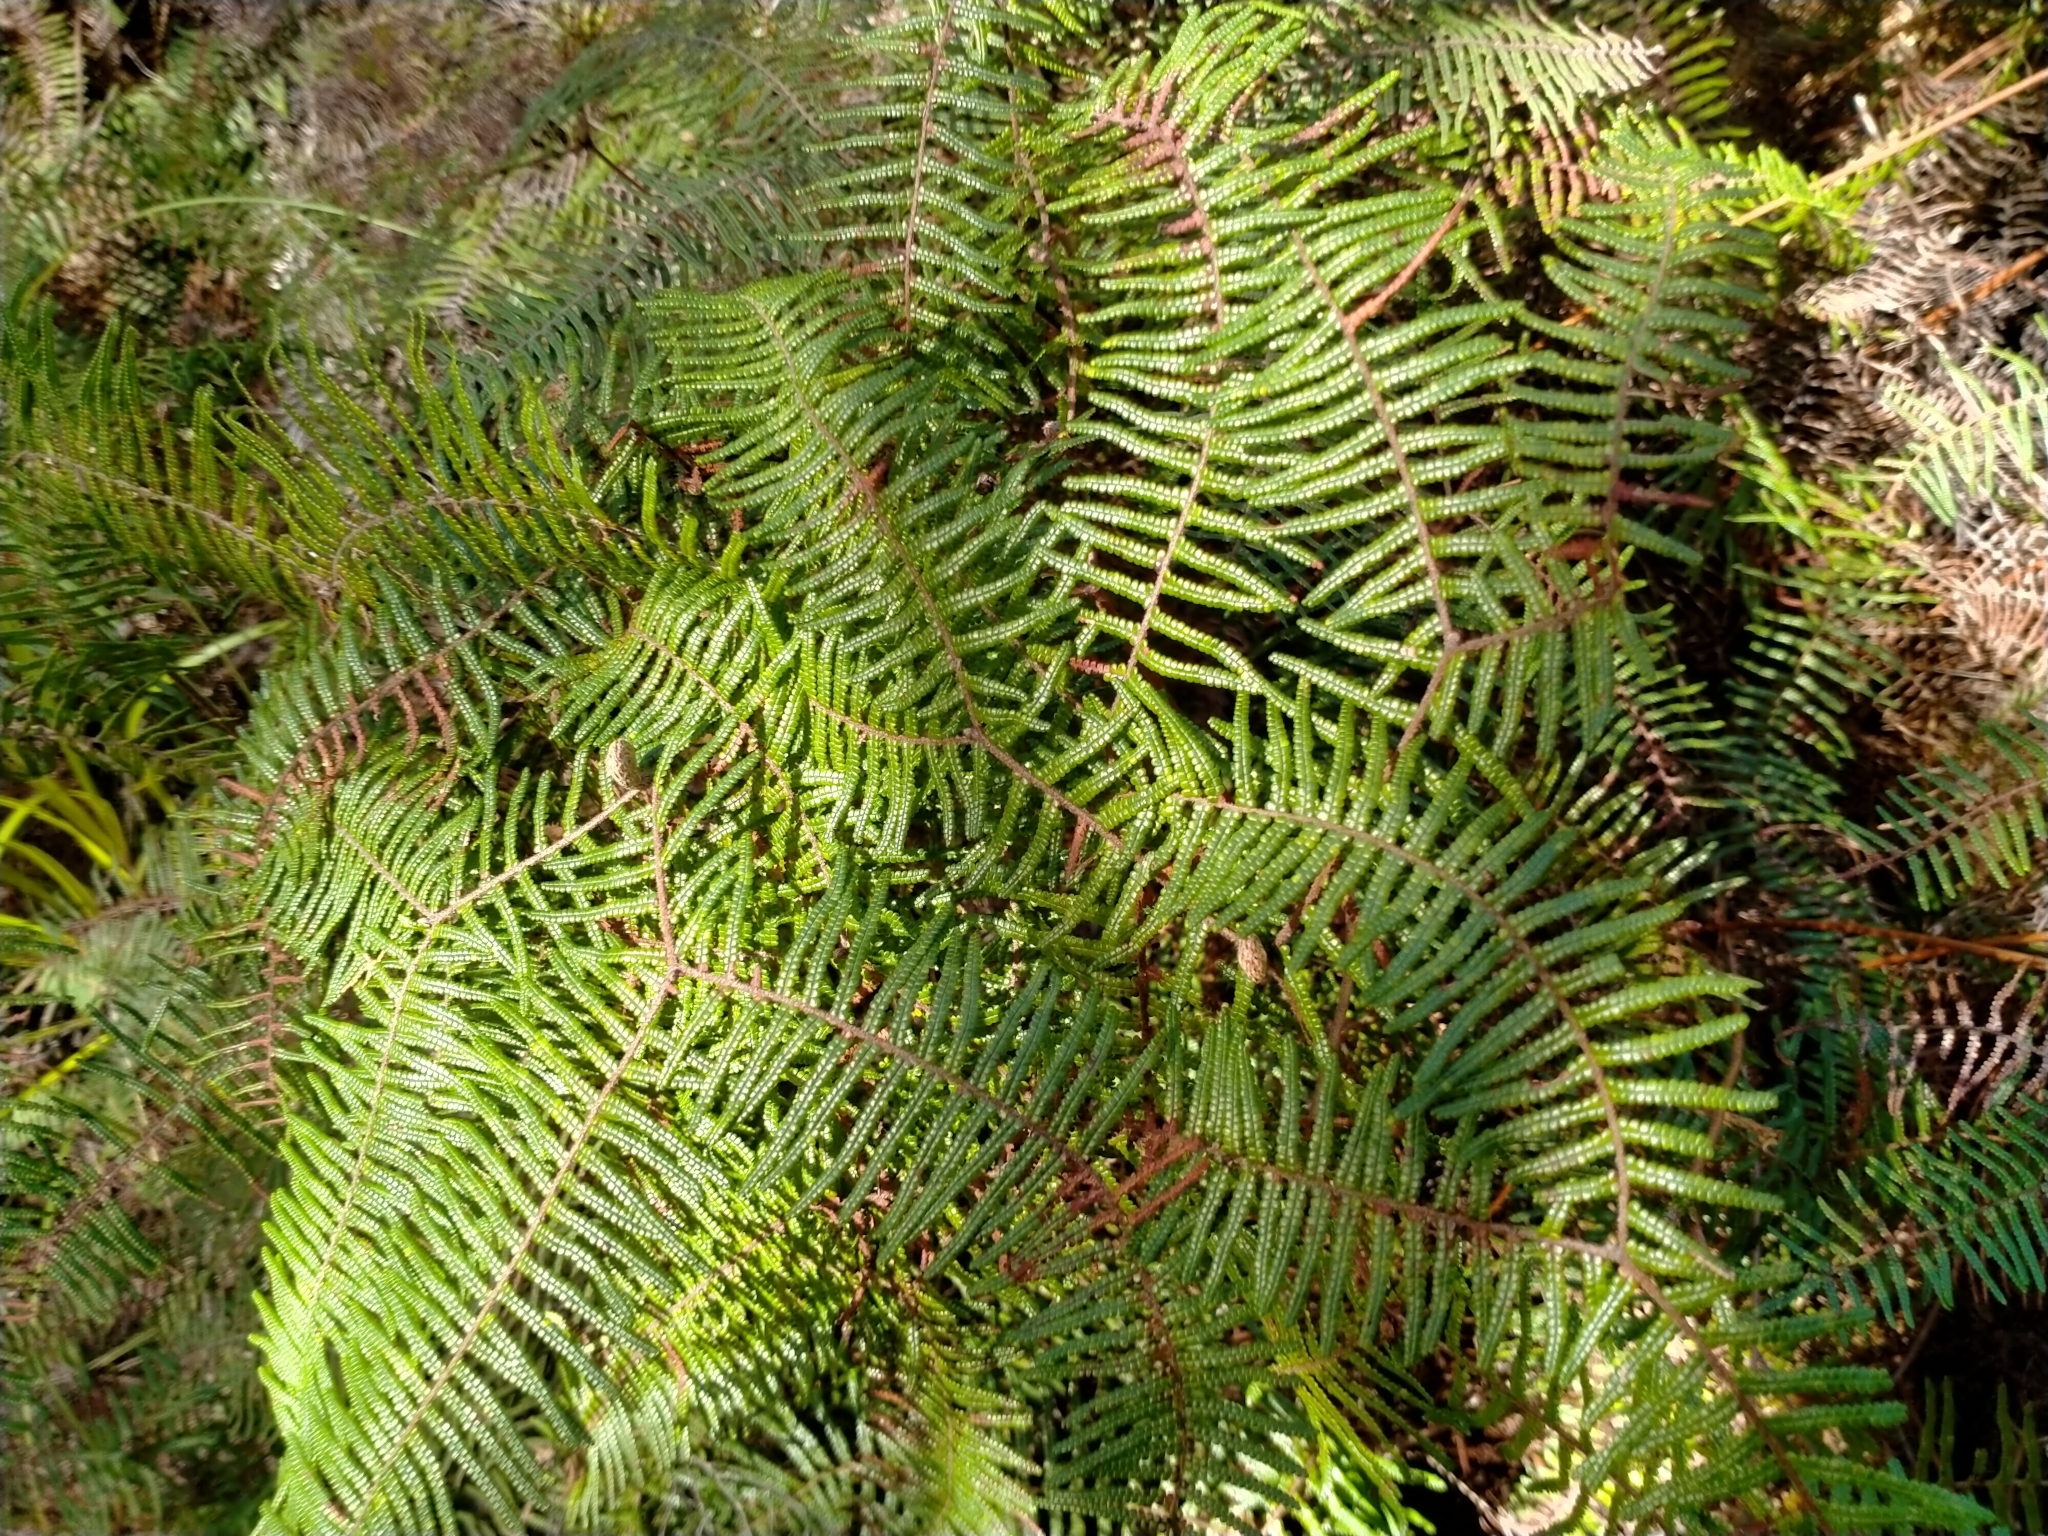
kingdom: Plantae
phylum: Tracheophyta
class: Polypodiopsida
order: Gleicheniales
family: Gleicheniaceae
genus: Gleichenia
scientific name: Gleichenia microphylla
